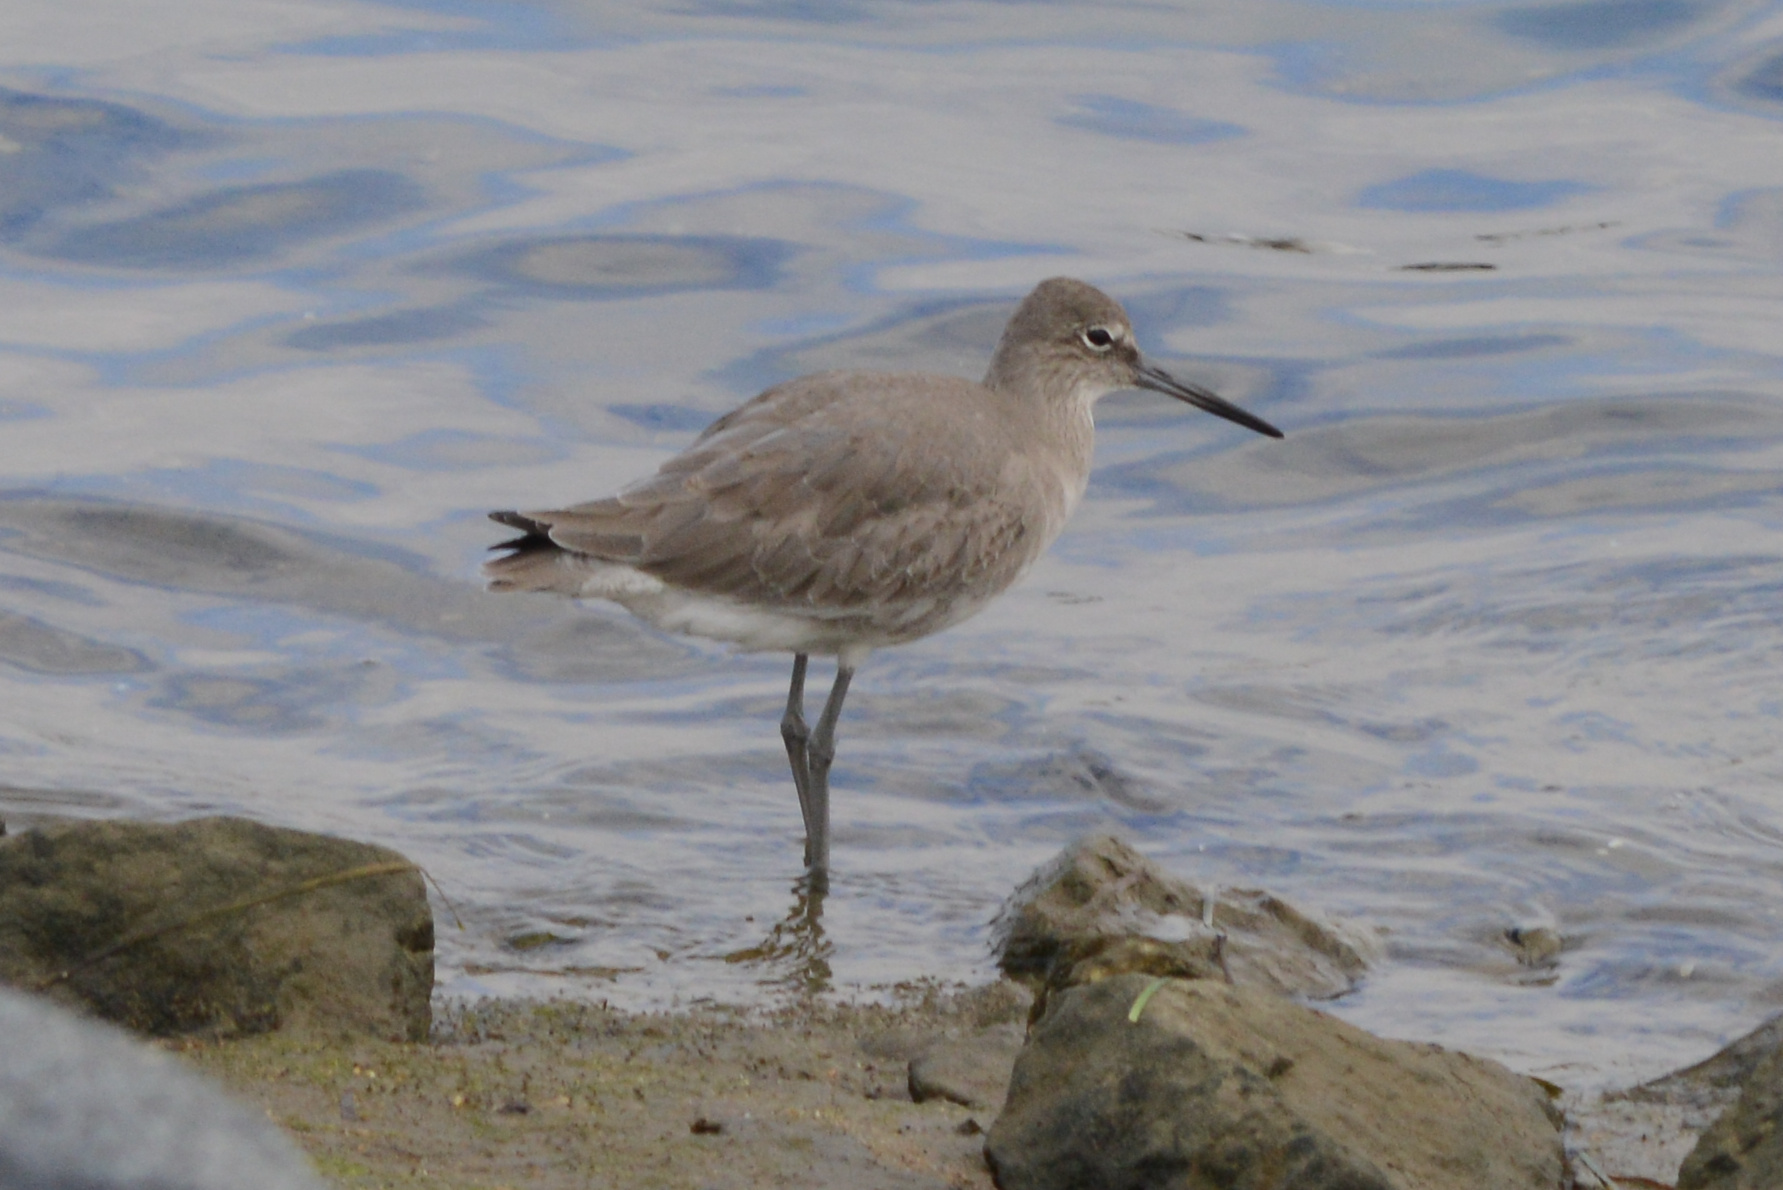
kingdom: Animalia
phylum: Chordata
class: Aves
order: Charadriiformes
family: Scolopacidae
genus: Tringa
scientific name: Tringa semipalmata
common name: Willet
